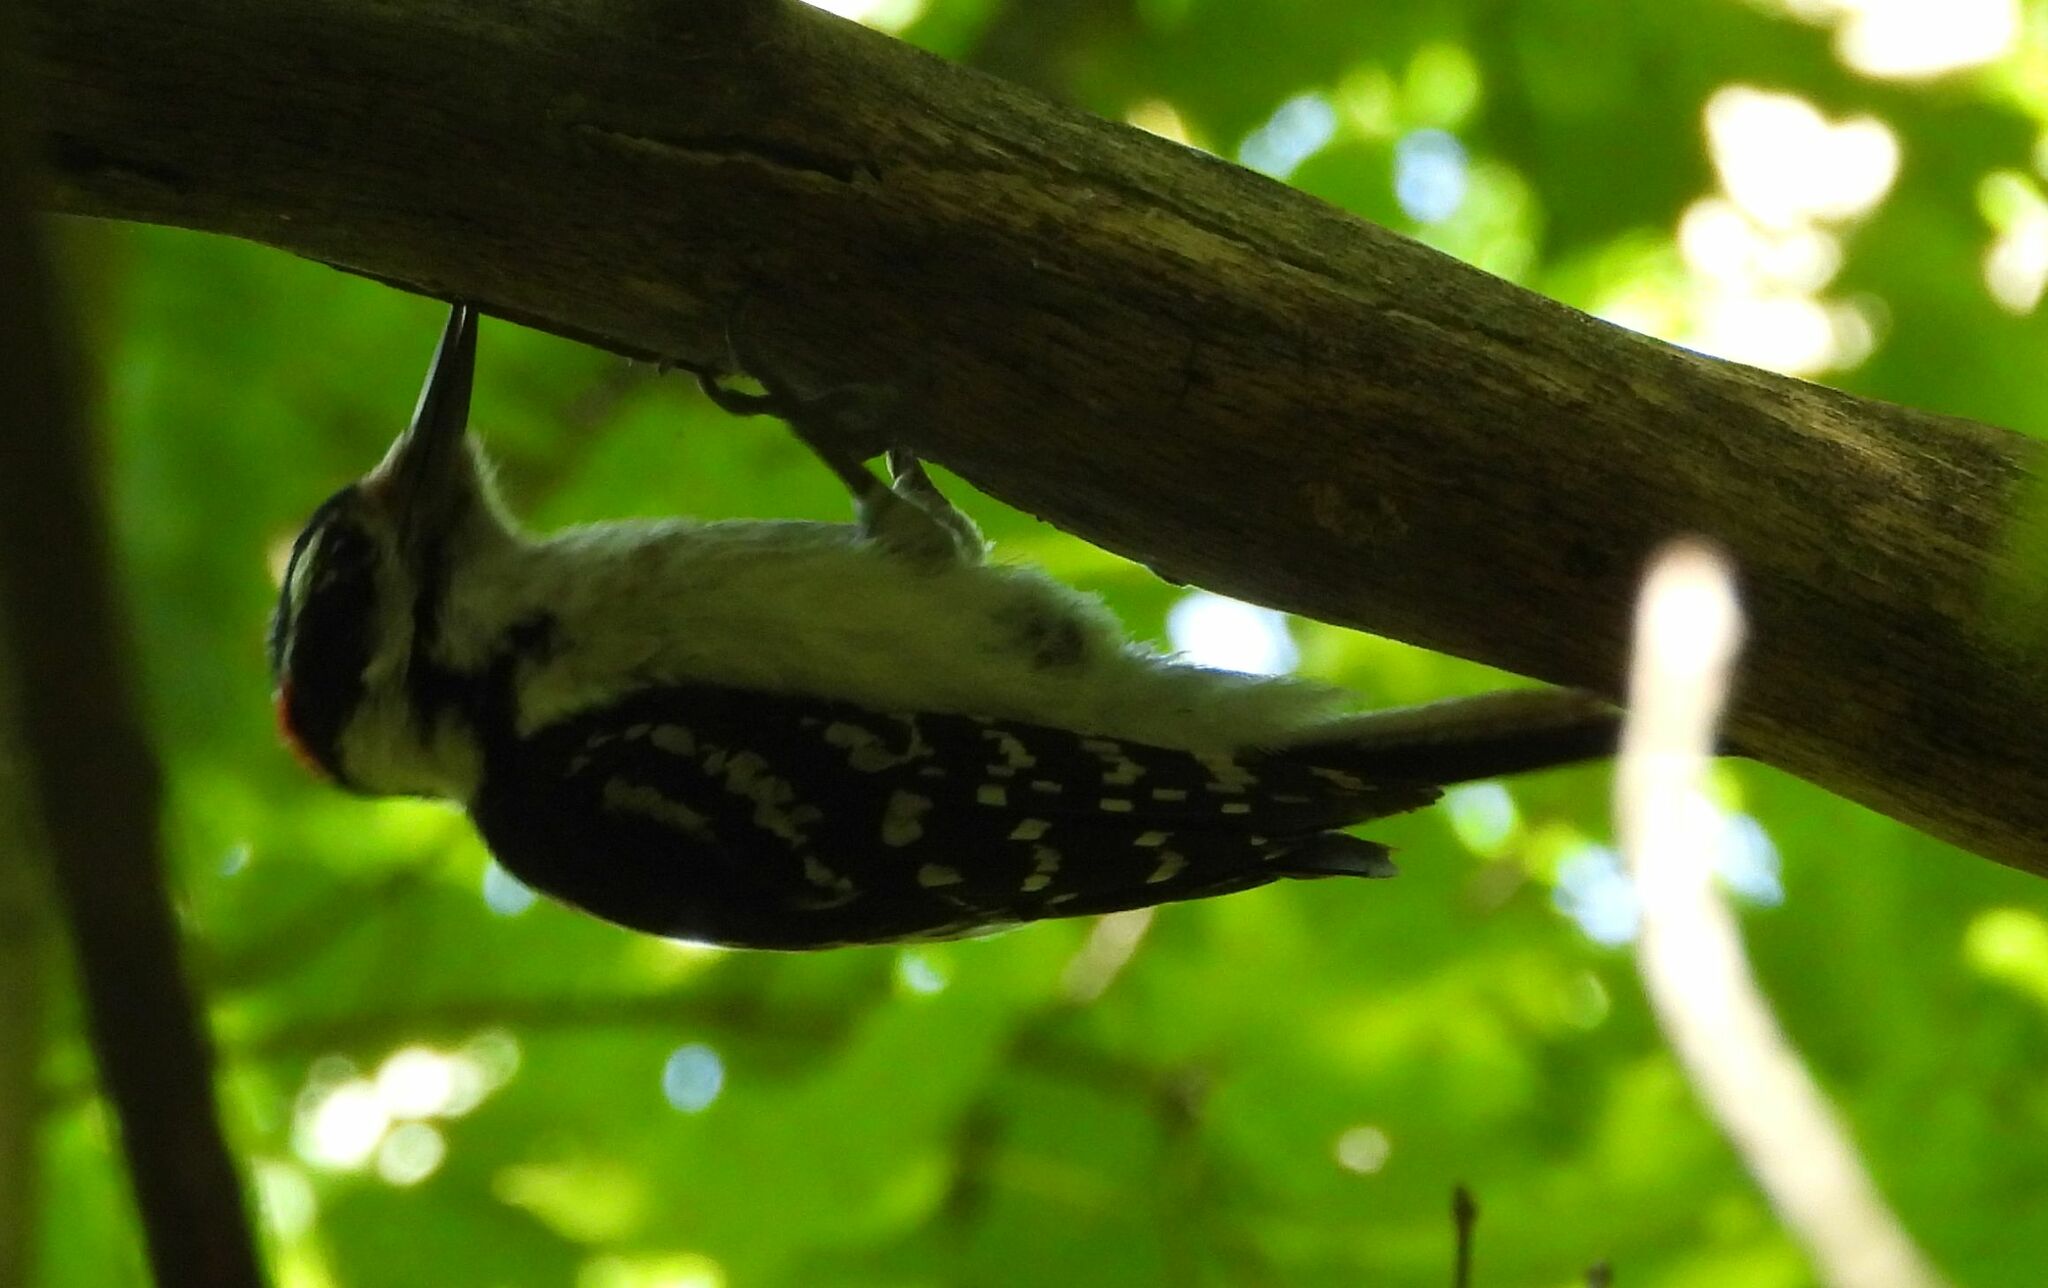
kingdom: Animalia
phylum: Chordata
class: Aves
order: Piciformes
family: Picidae
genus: Leuconotopicus
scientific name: Leuconotopicus villosus
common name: Hairy woodpecker
